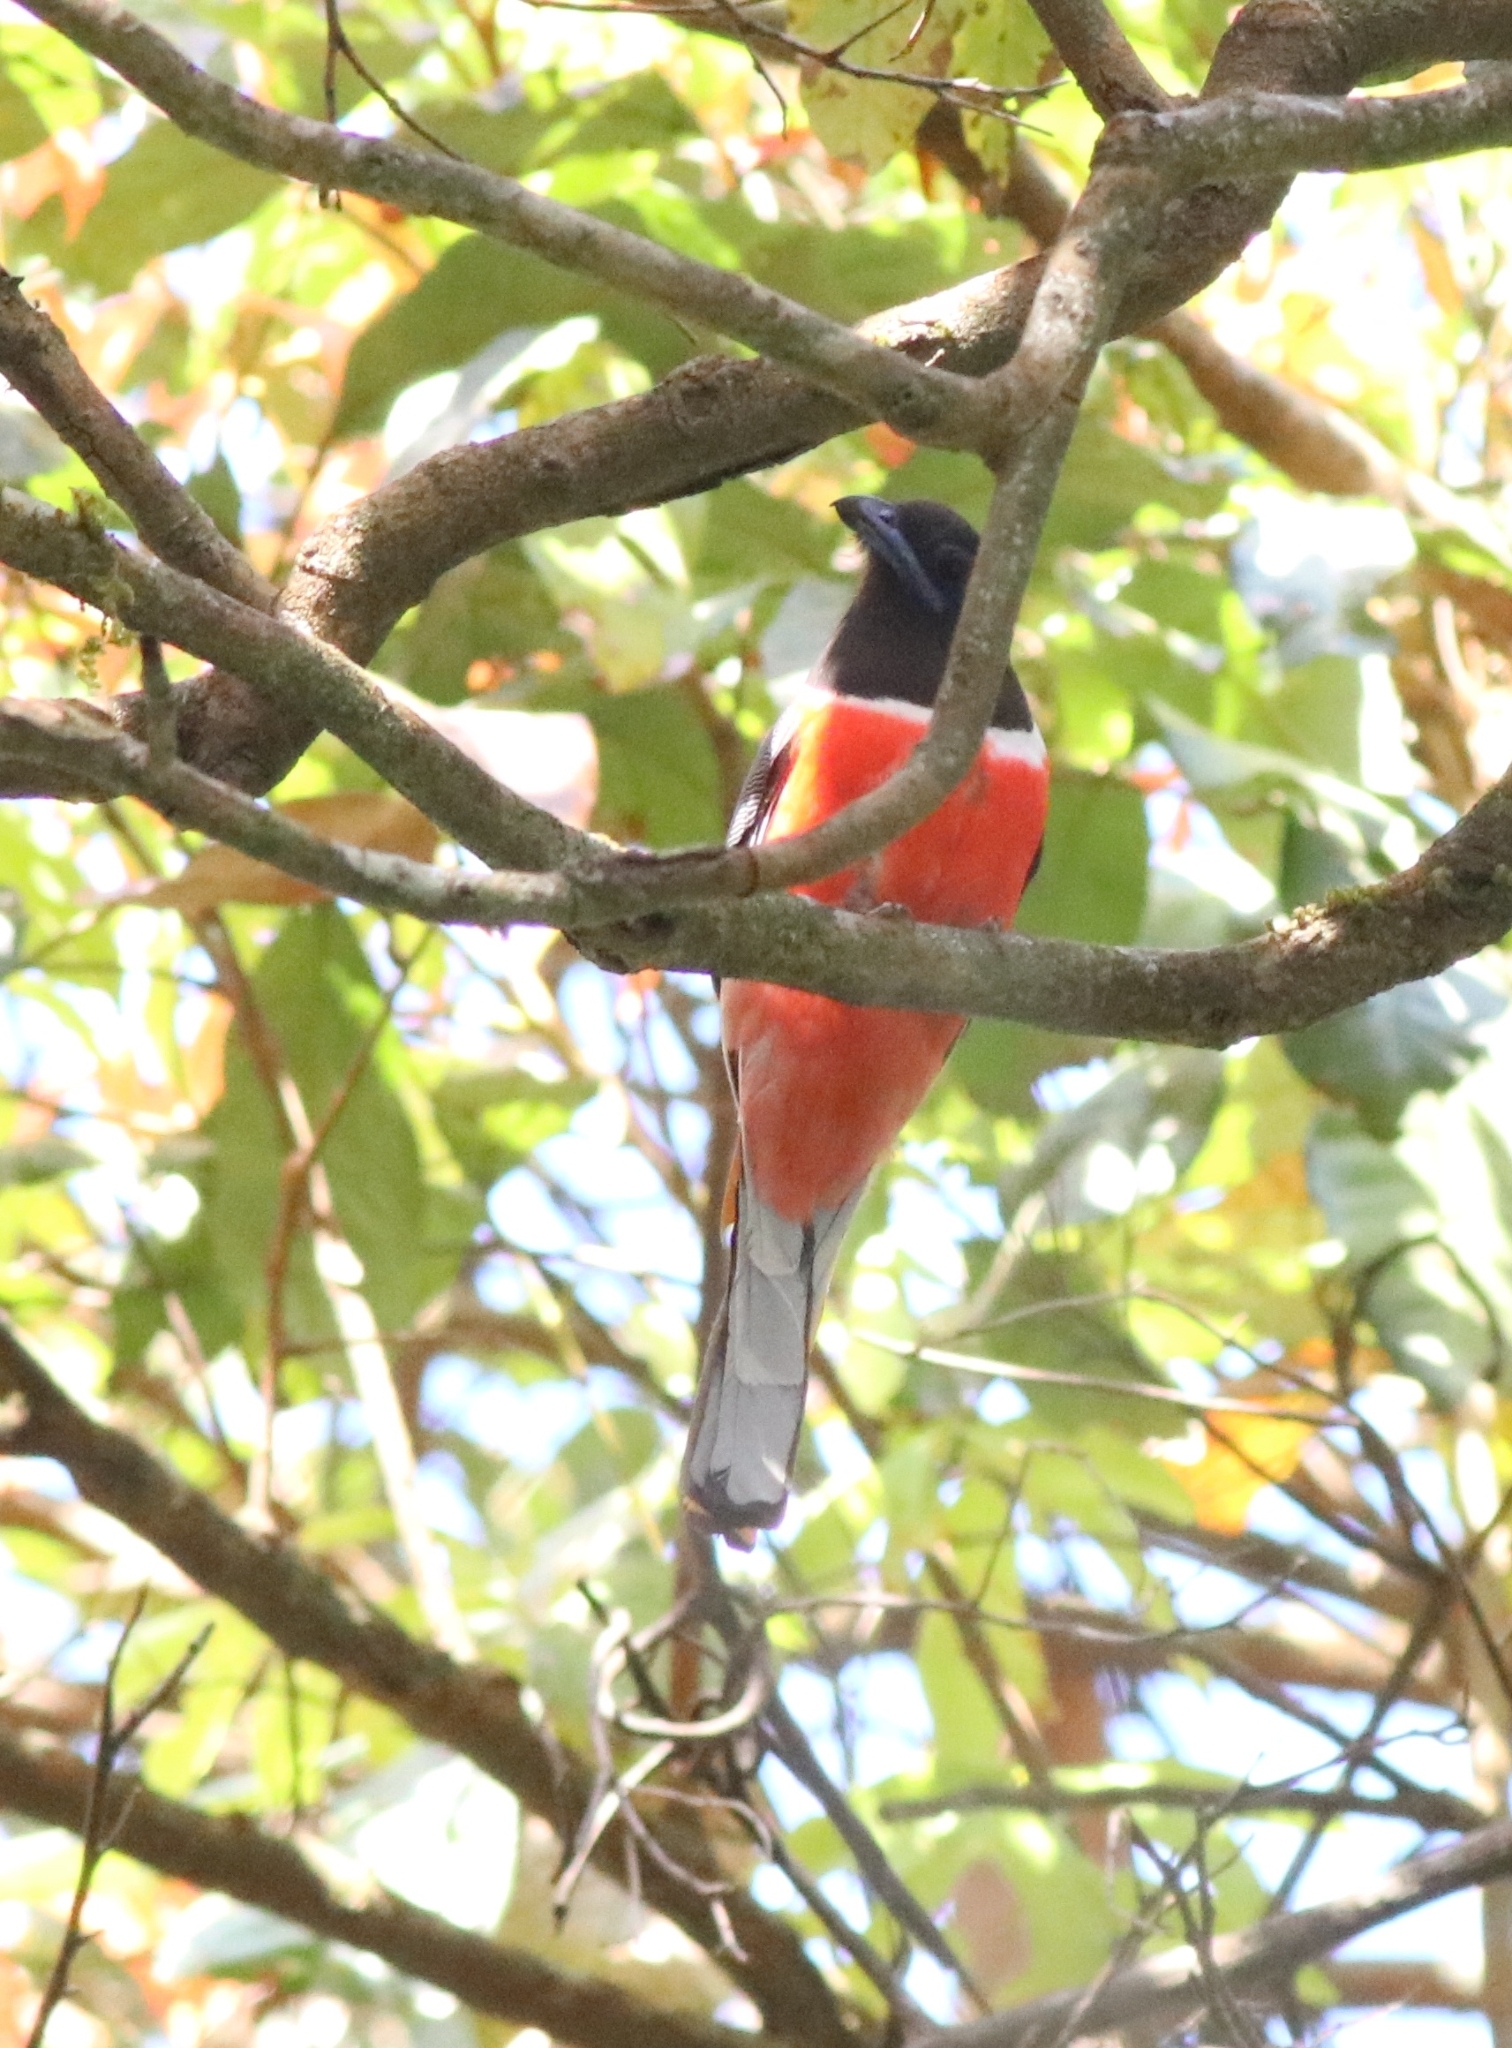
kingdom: Animalia
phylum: Chordata
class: Aves
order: Trogoniformes
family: Trogonidae
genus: Harpactes
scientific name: Harpactes fasciatus
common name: Malabar trogon
